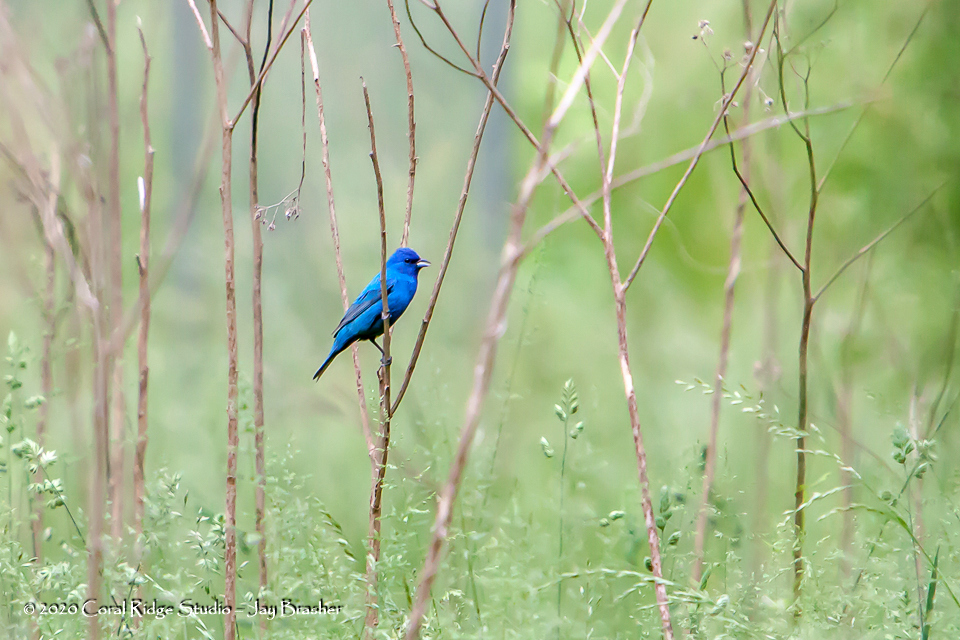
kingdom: Animalia
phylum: Chordata
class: Aves
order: Passeriformes
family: Cardinalidae
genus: Passerina
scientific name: Passerina cyanea
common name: Indigo bunting
